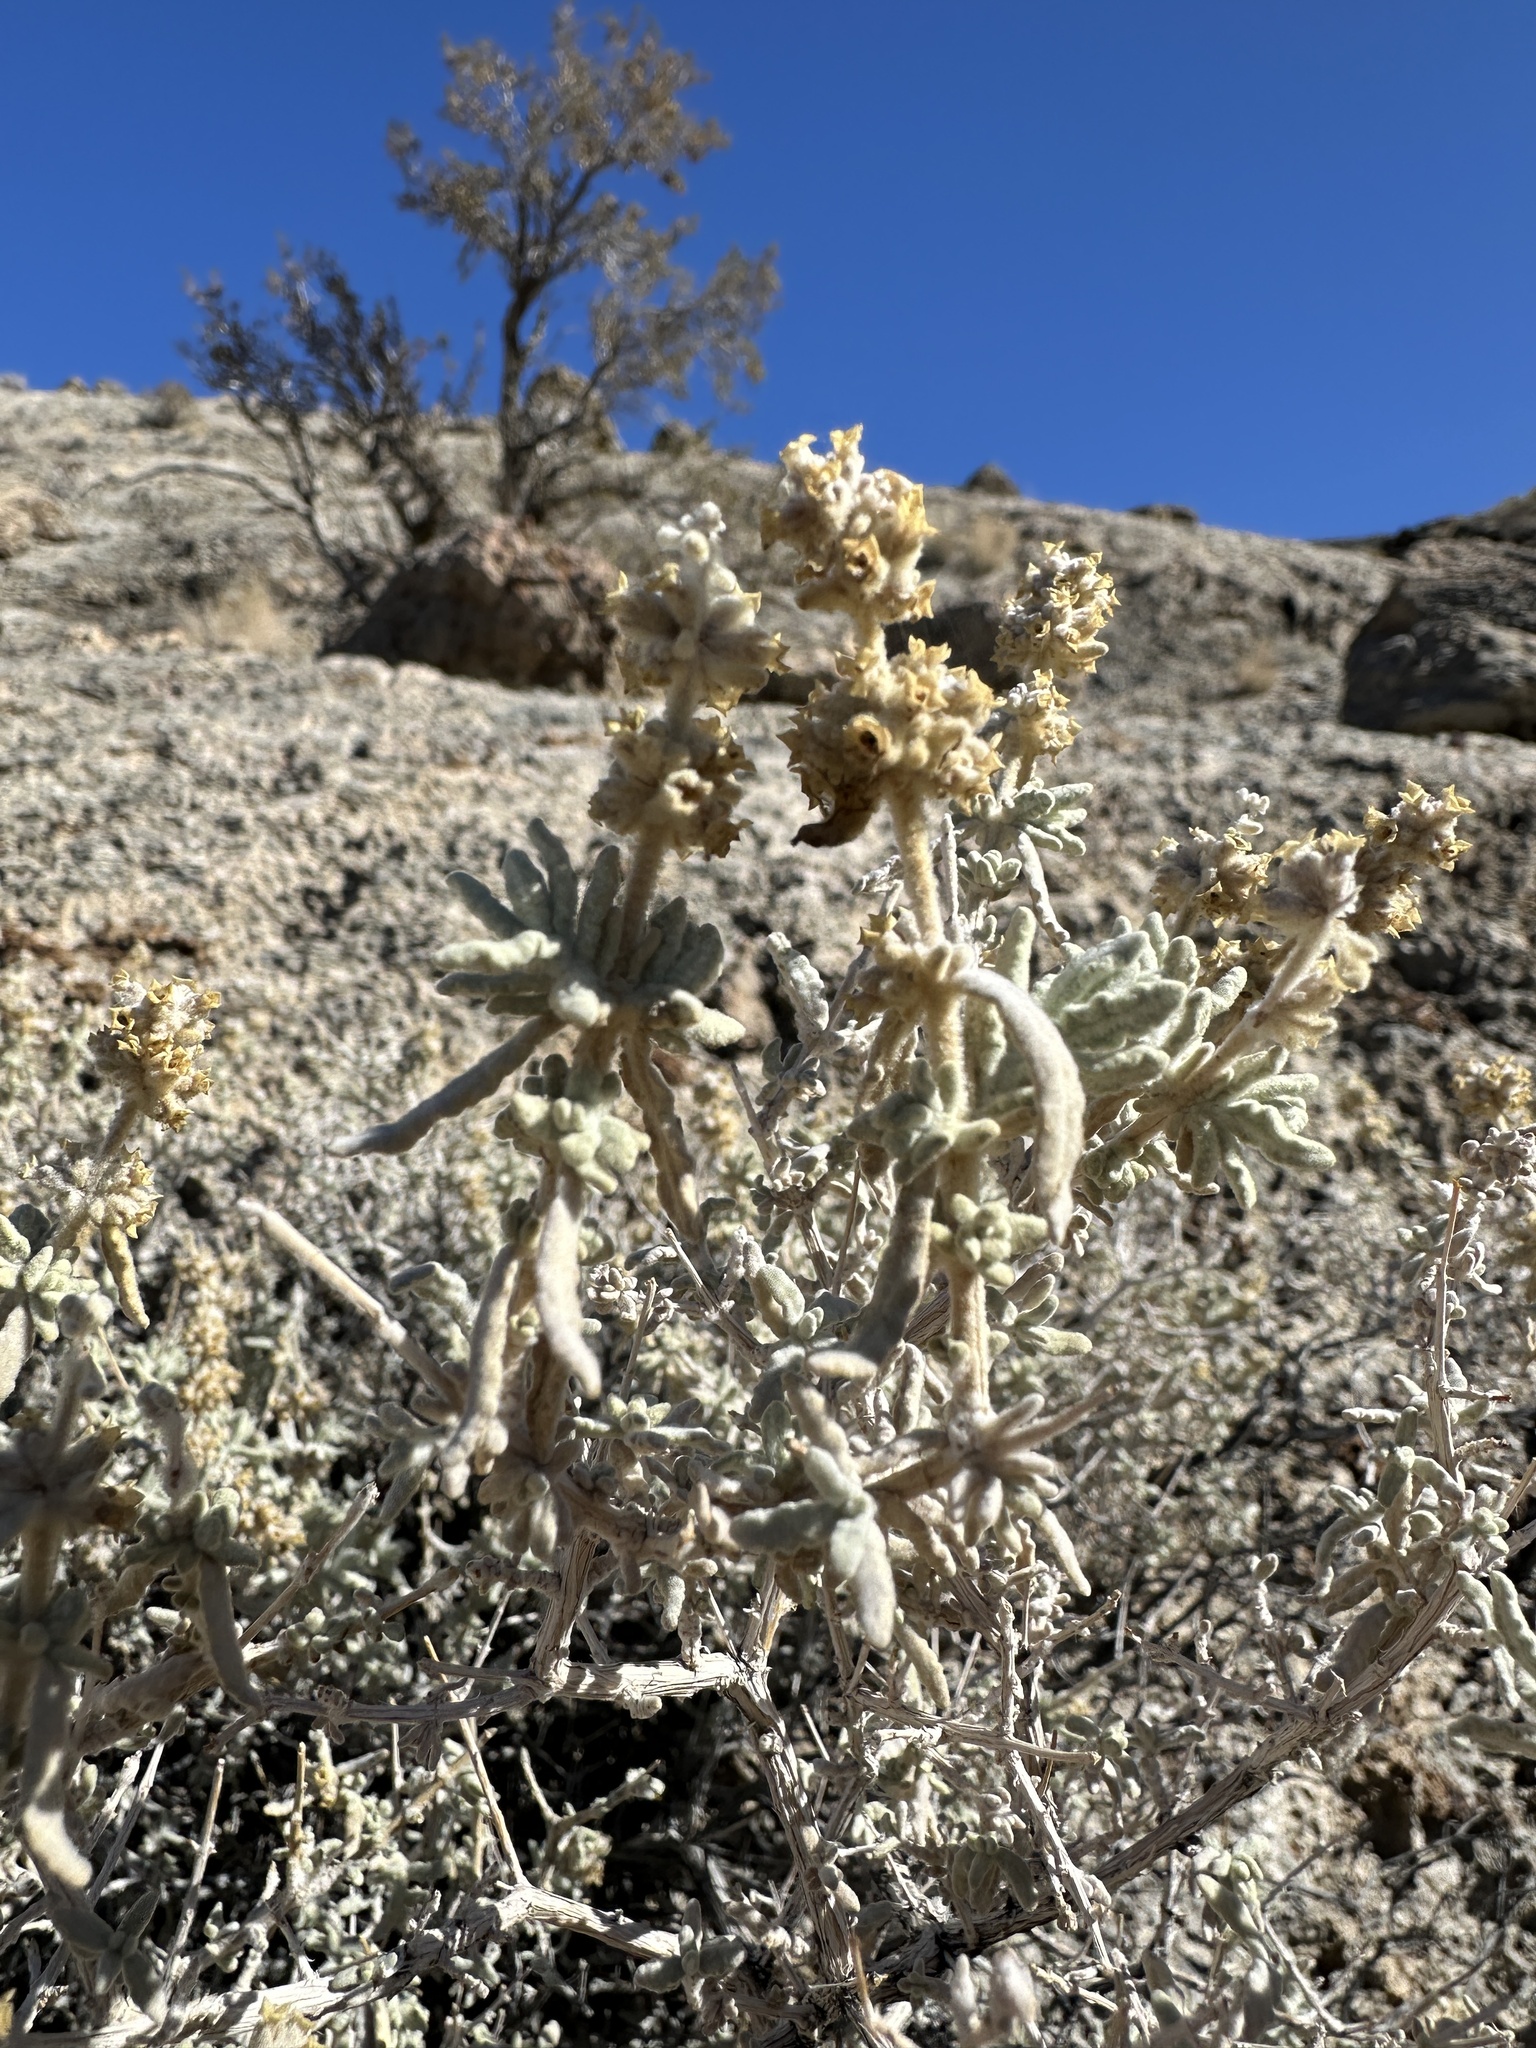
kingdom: Plantae
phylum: Tracheophyta
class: Magnoliopsida
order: Lamiales
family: Scrophulariaceae
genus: Buddleja
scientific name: Buddleja utahensis
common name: Utah butterfly-bush
